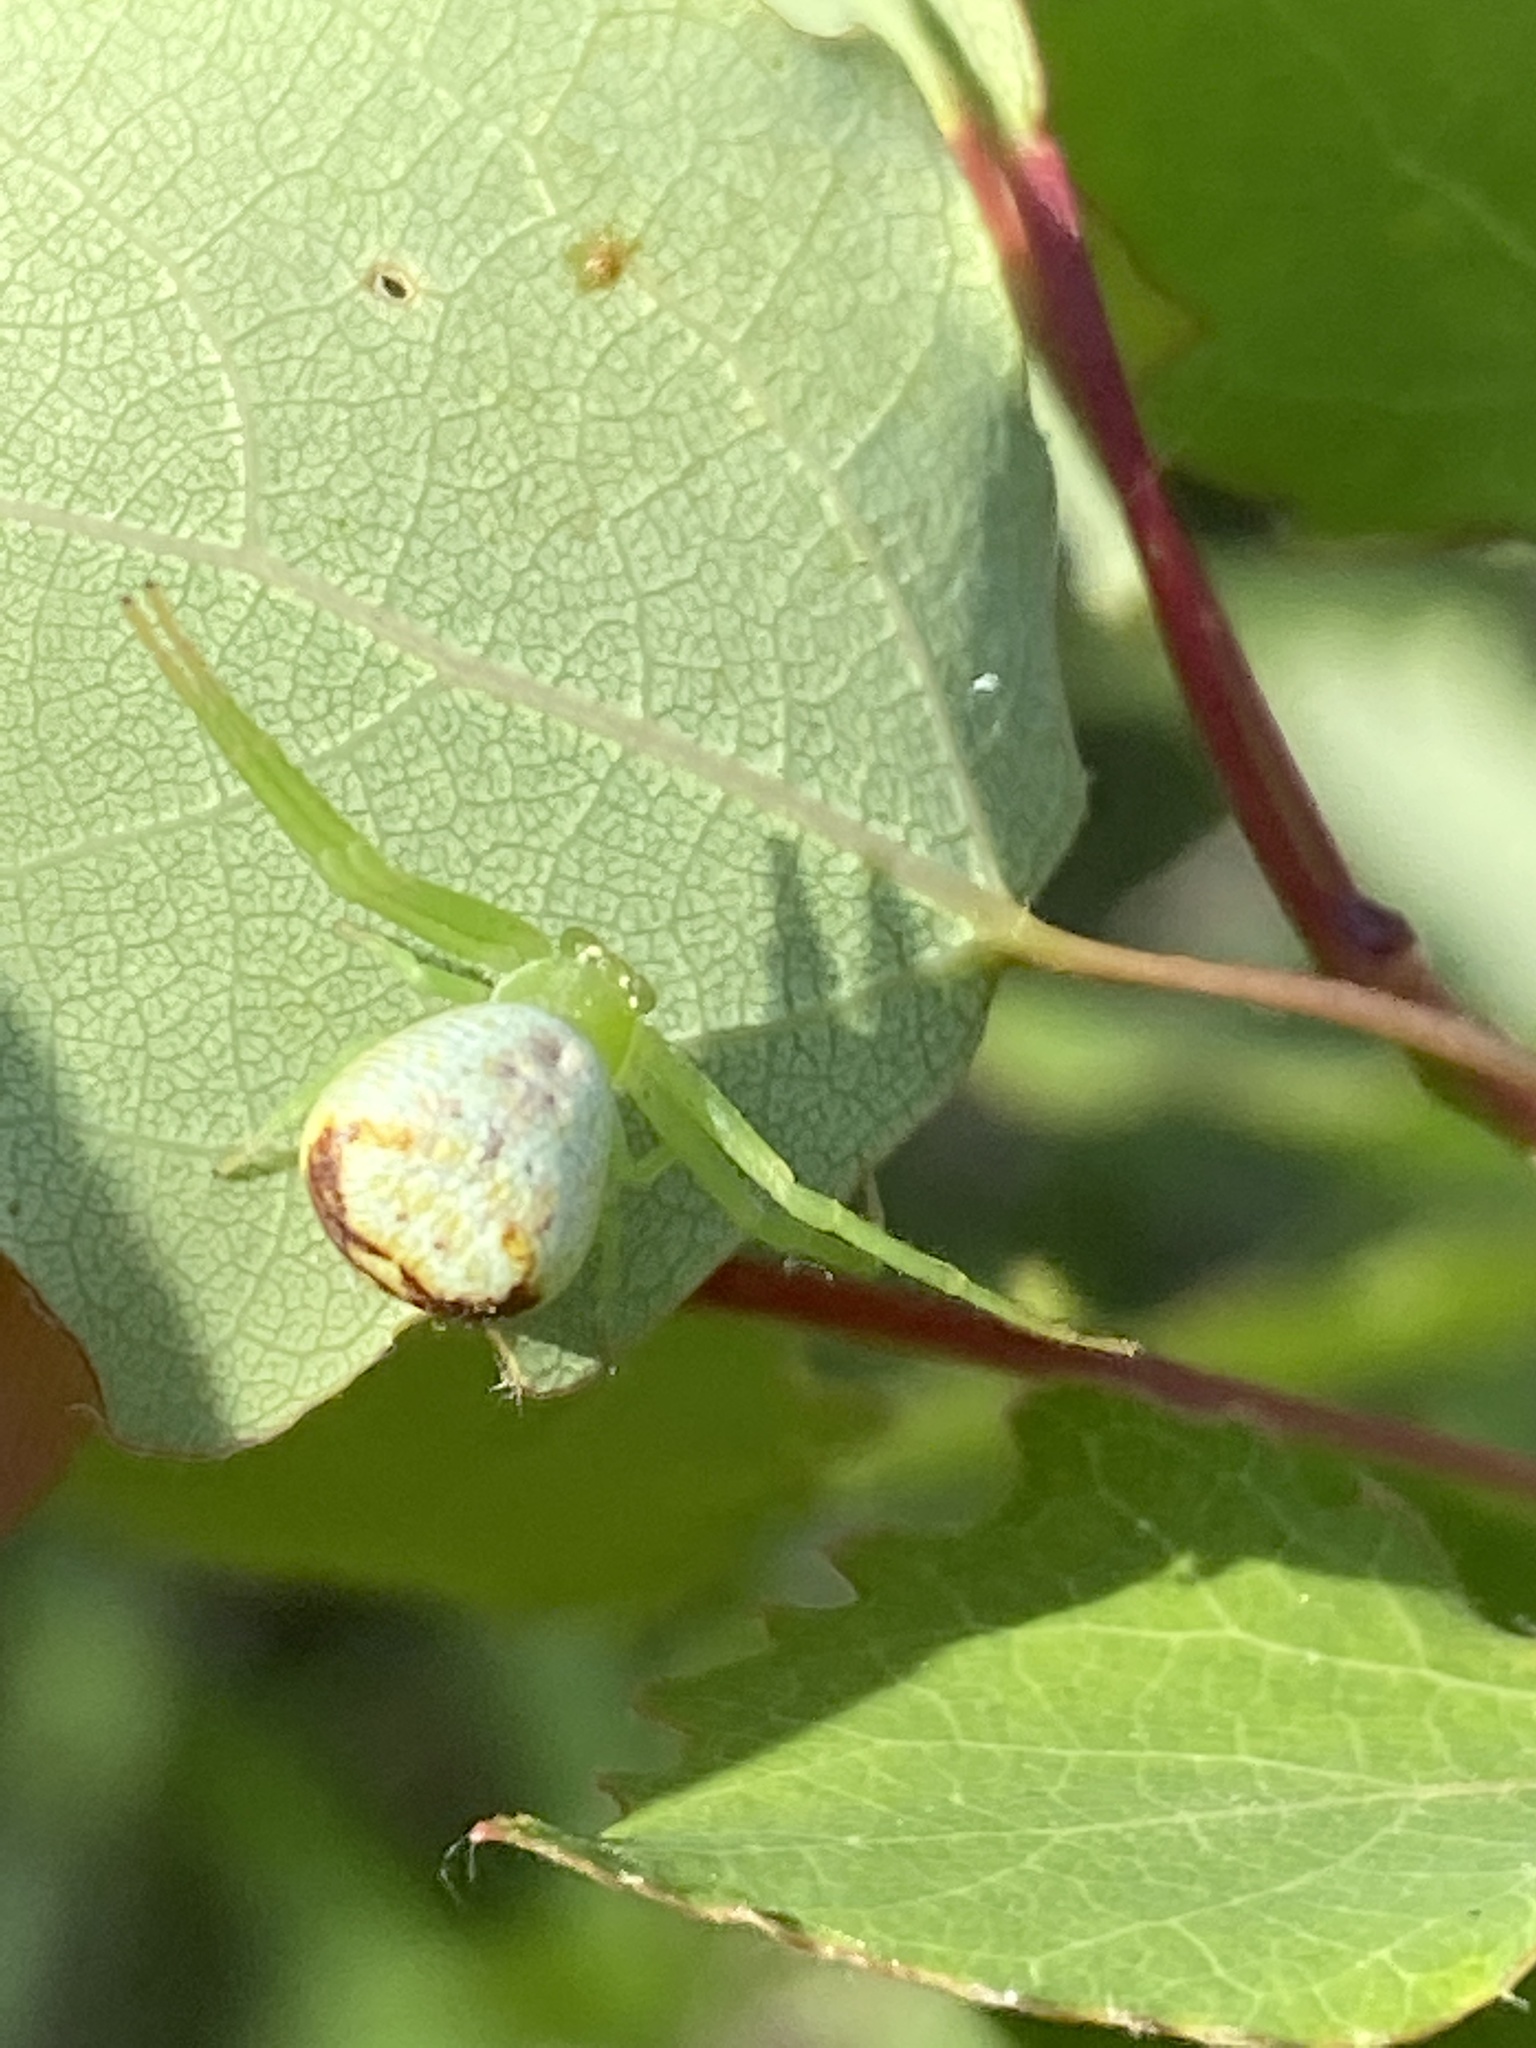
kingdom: Animalia
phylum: Arthropoda
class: Arachnida
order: Araneae
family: Thomisidae
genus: Ebrechtella
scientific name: Ebrechtella tricuspidata
